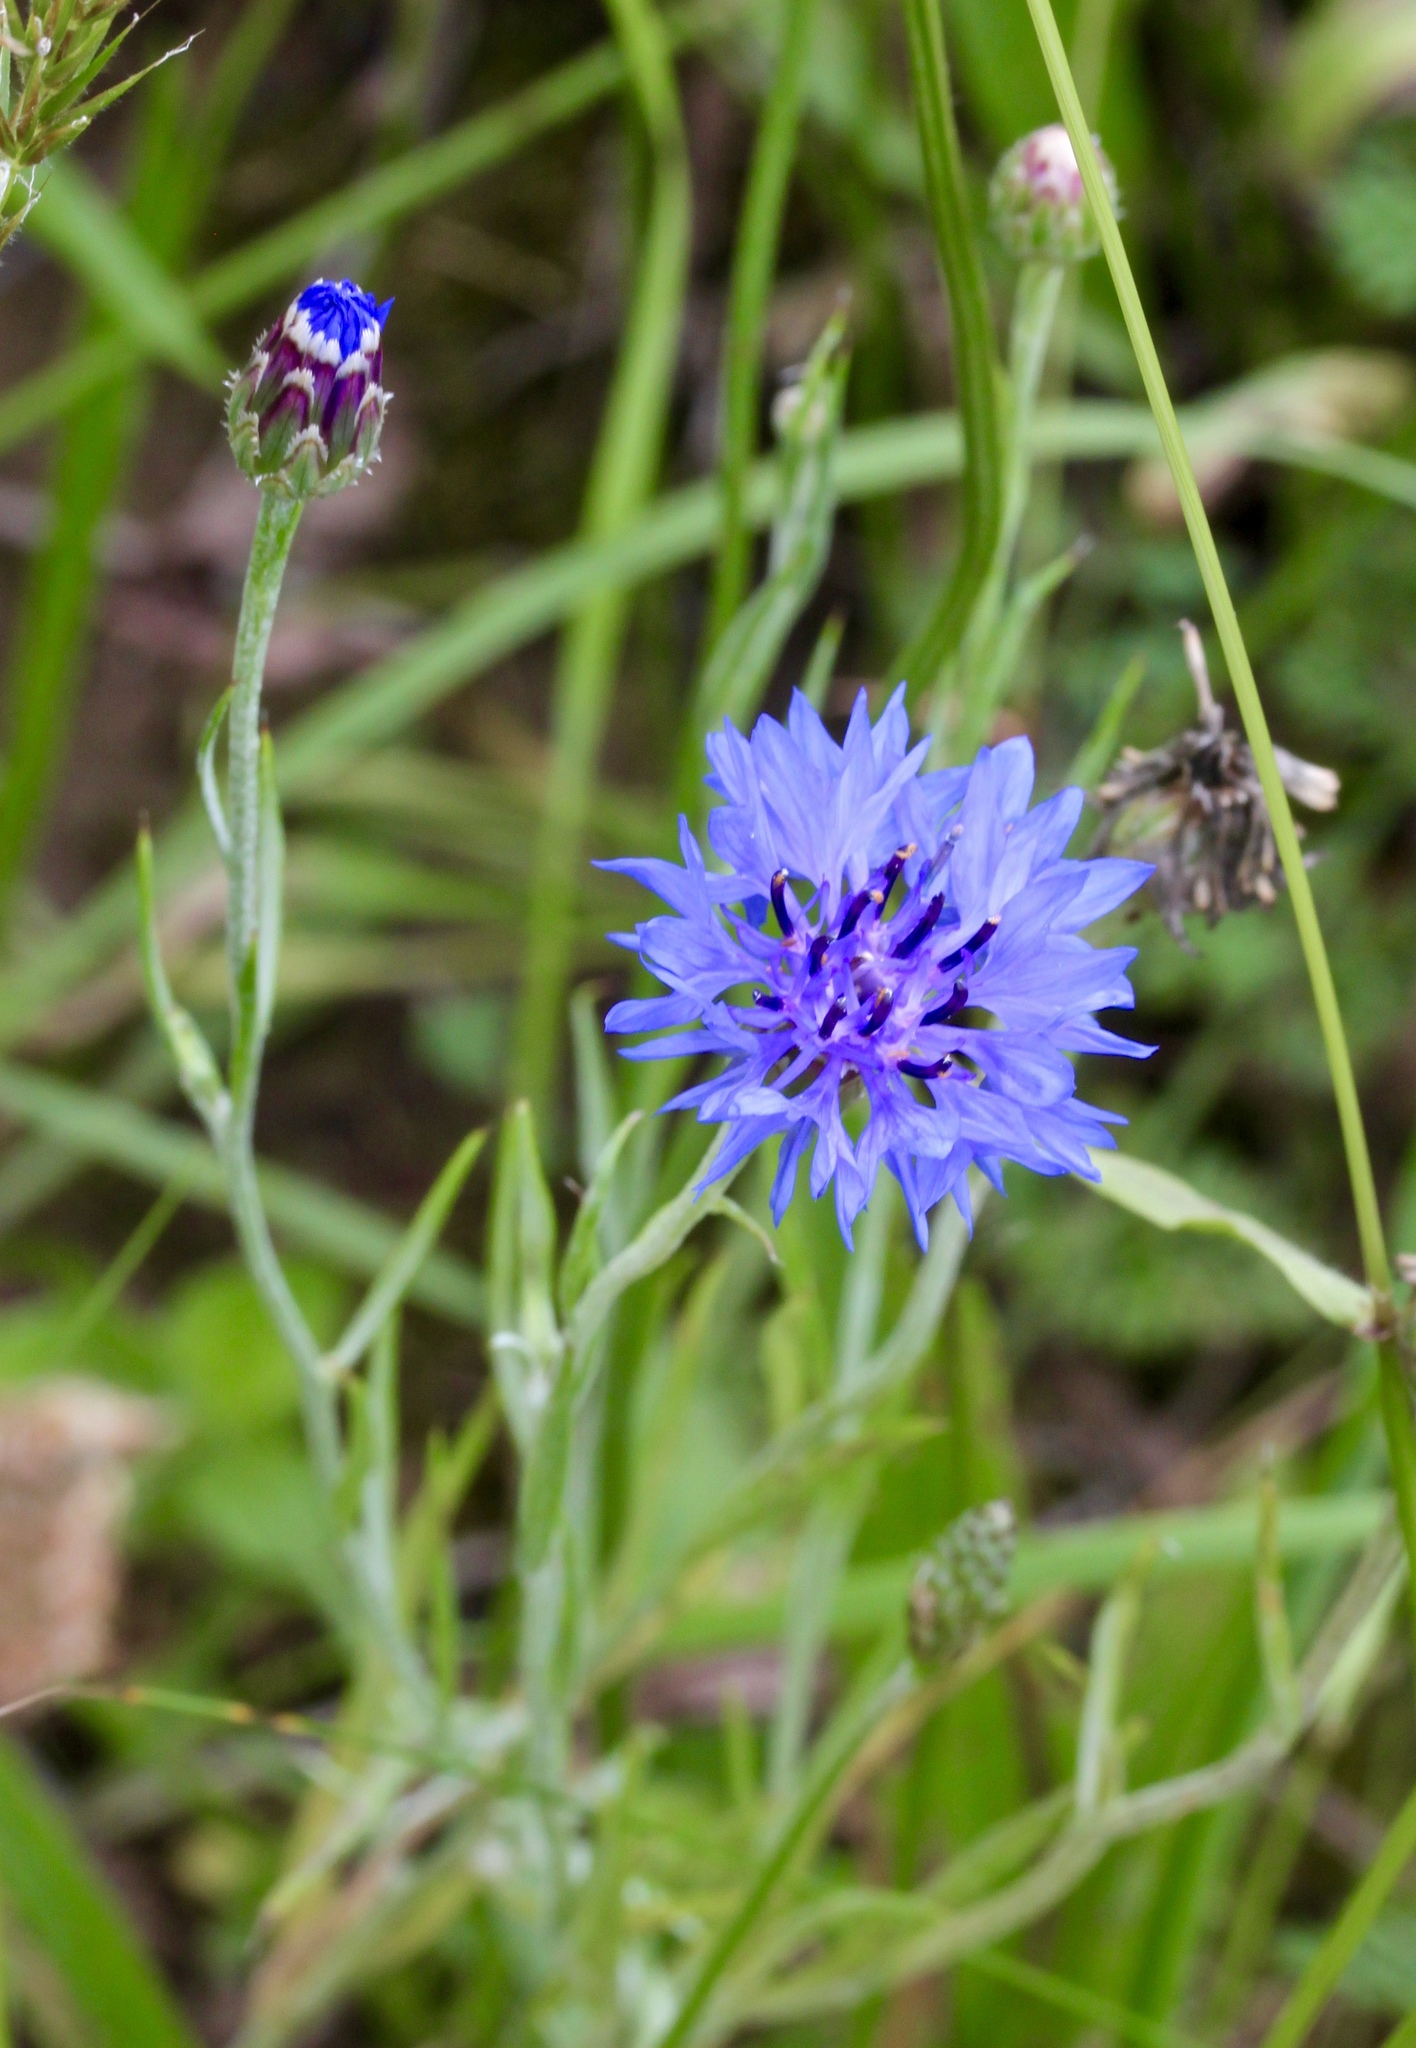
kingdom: Plantae
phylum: Tracheophyta
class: Magnoliopsida
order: Asterales
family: Asteraceae
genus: Centaurea
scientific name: Centaurea cyanus
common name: Cornflower
